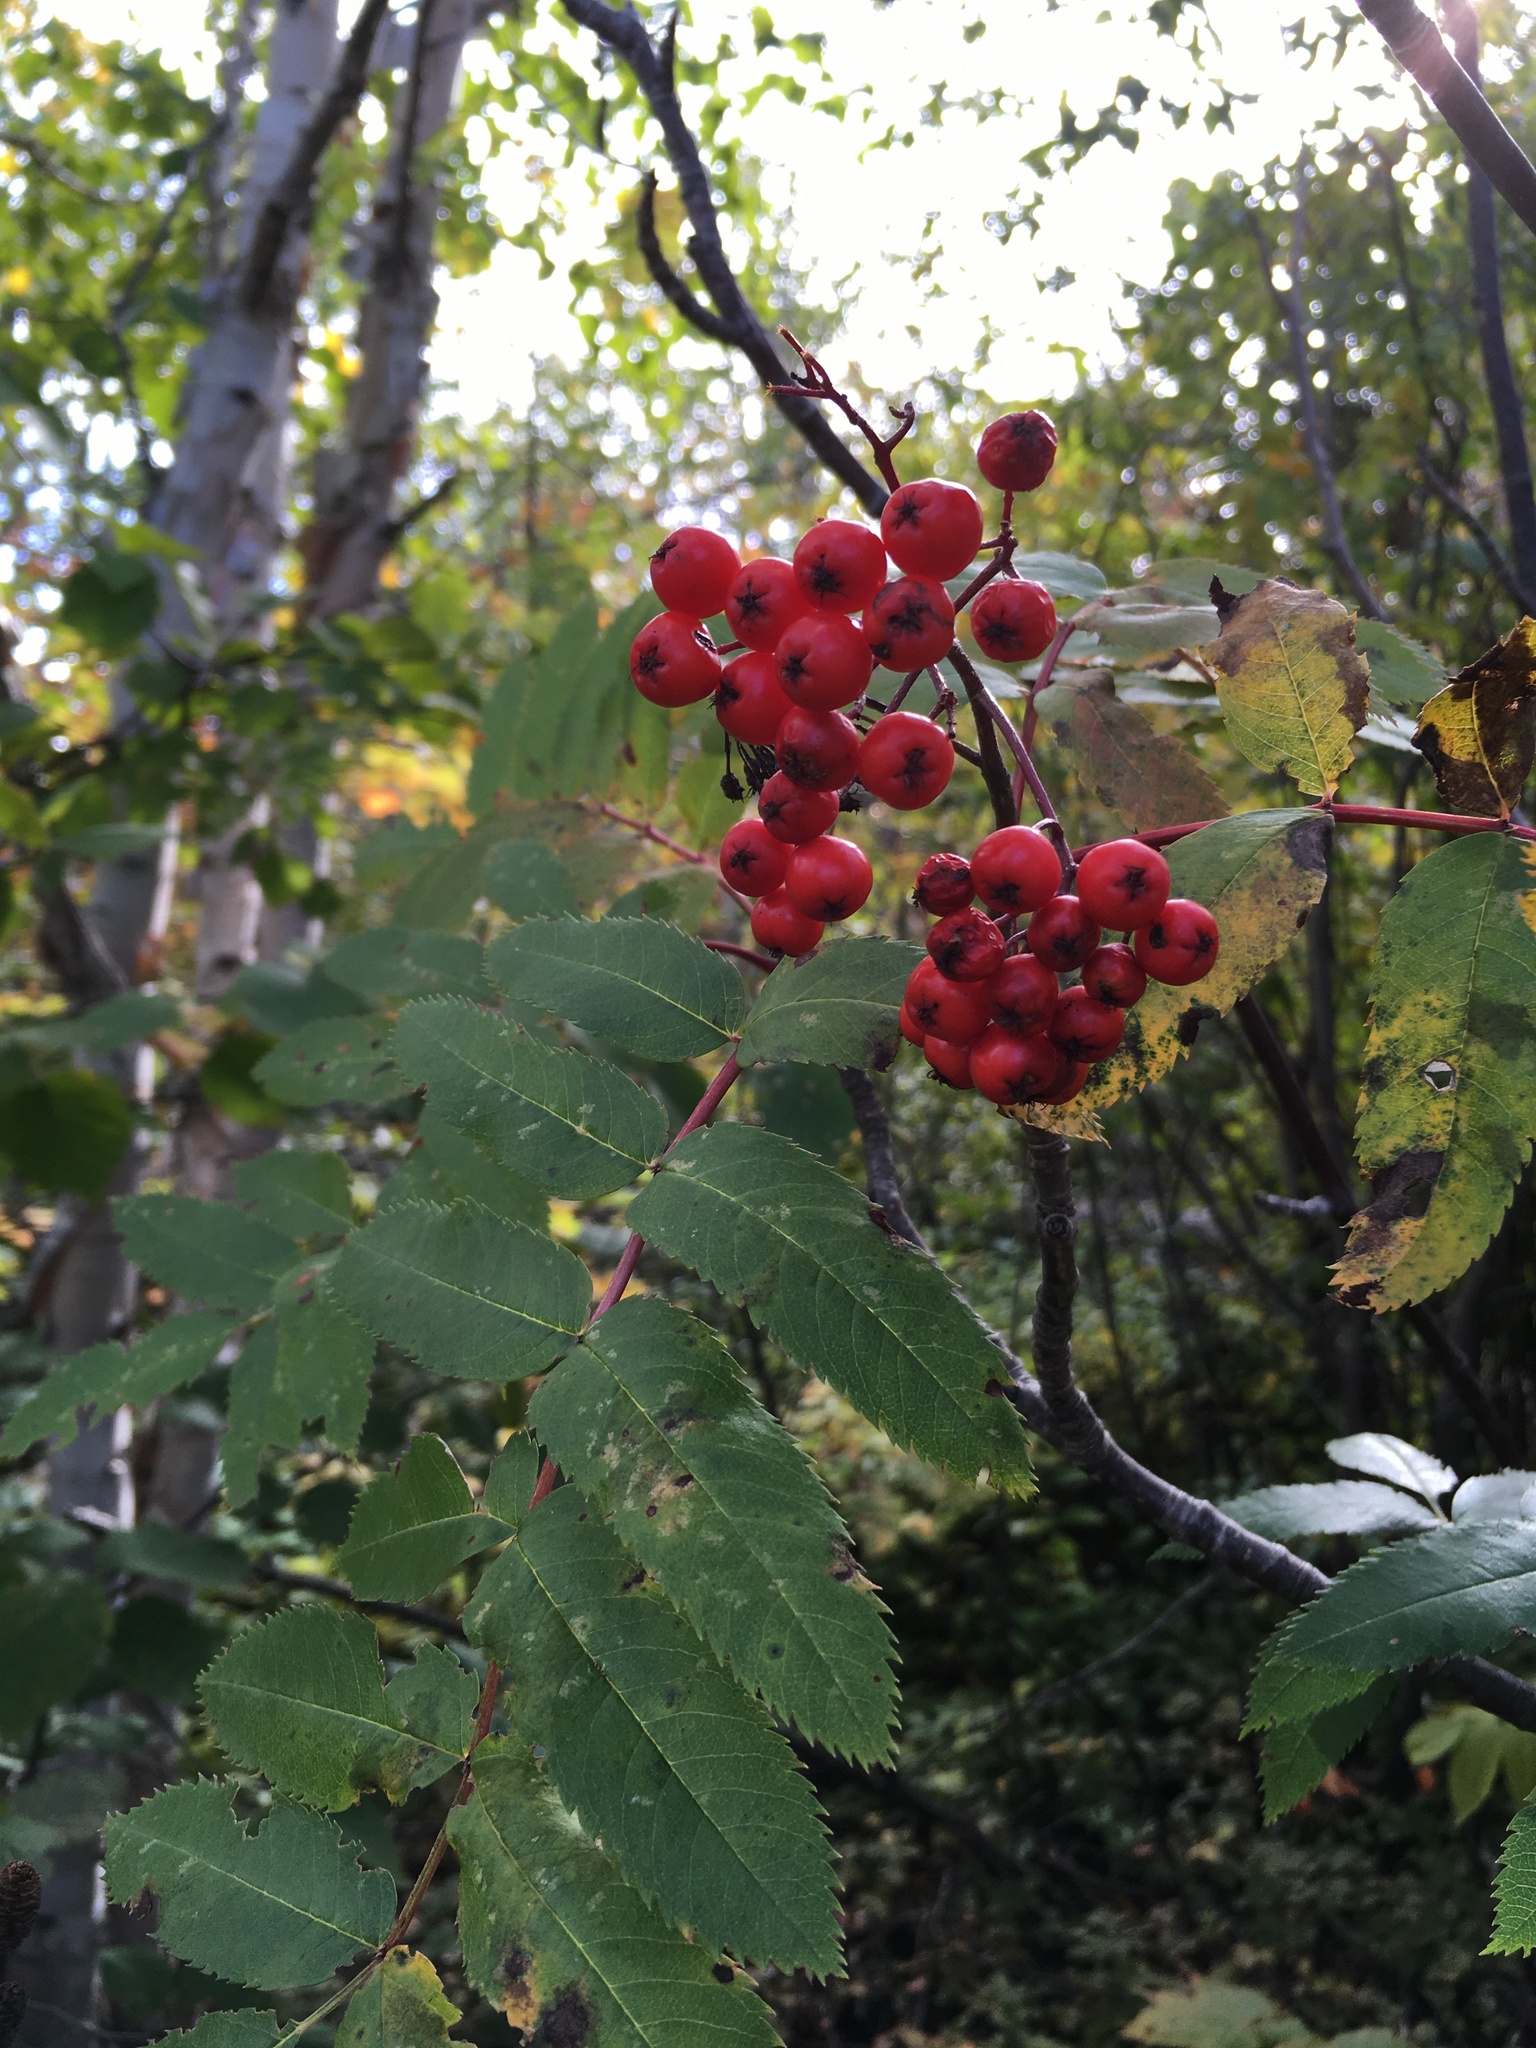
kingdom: Plantae
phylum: Tracheophyta
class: Magnoliopsida
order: Rosales
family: Rosaceae
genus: Sorbus
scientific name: Sorbus decora
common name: Northern mountain-ash
